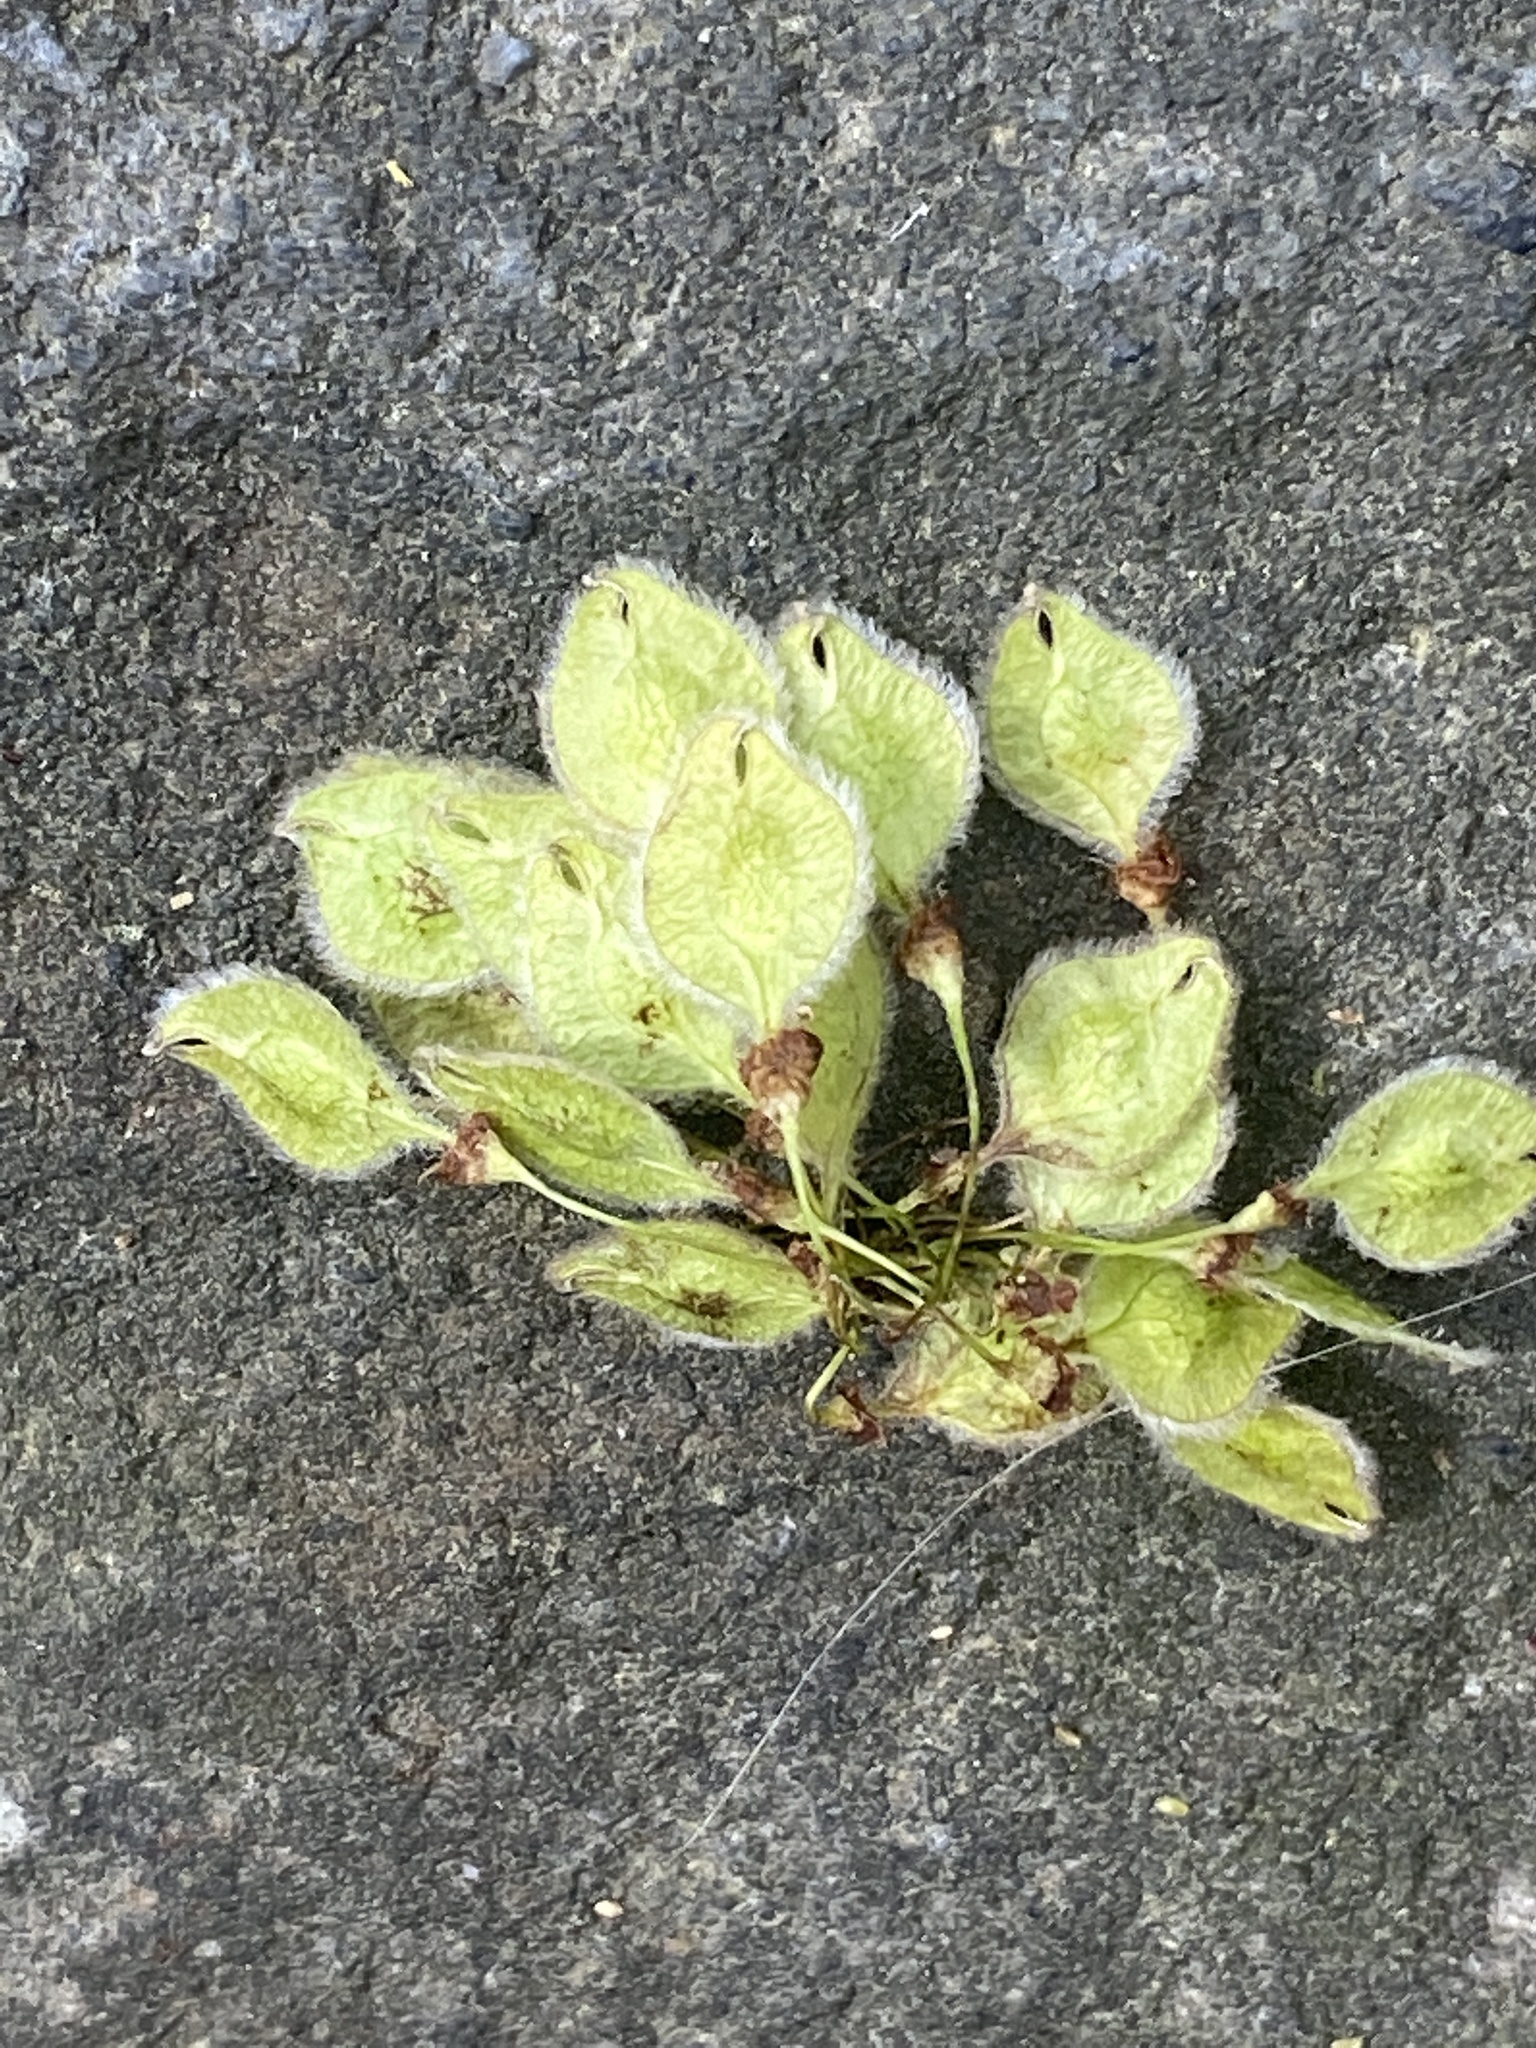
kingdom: Plantae
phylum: Tracheophyta
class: Magnoliopsida
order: Rosales
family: Ulmaceae
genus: Ulmus
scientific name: Ulmus americana
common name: American elm
